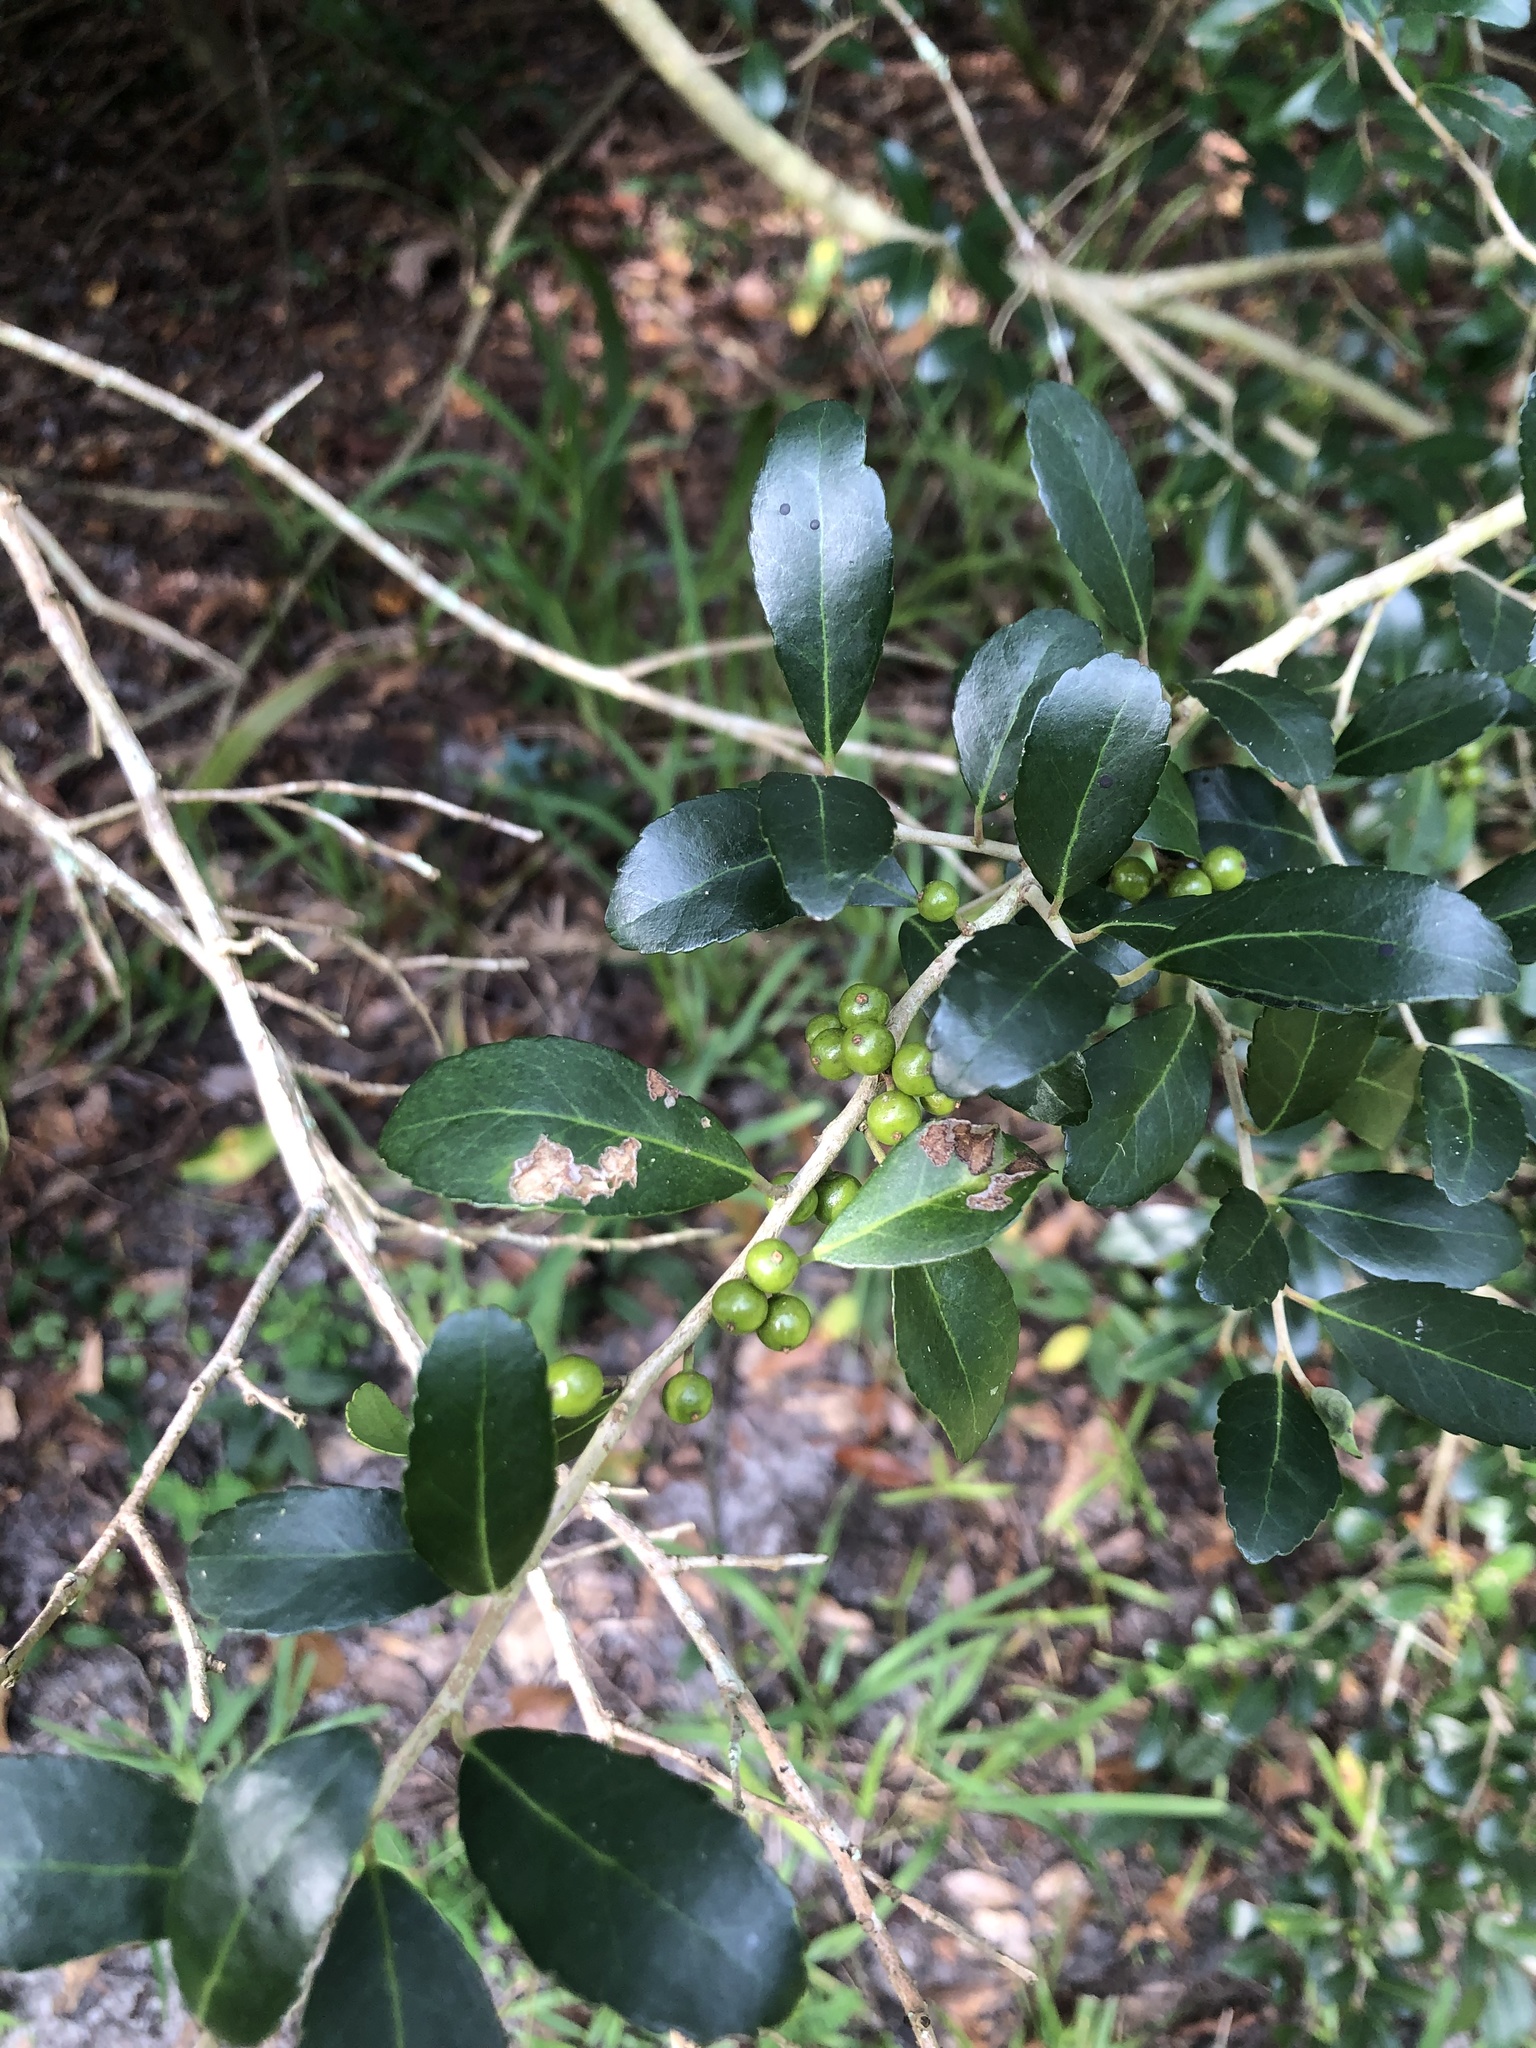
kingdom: Plantae
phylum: Tracheophyta
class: Magnoliopsida
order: Aquifoliales
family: Aquifoliaceae
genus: Ilex
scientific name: Ilex vomitoria
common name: Yaupon holly
